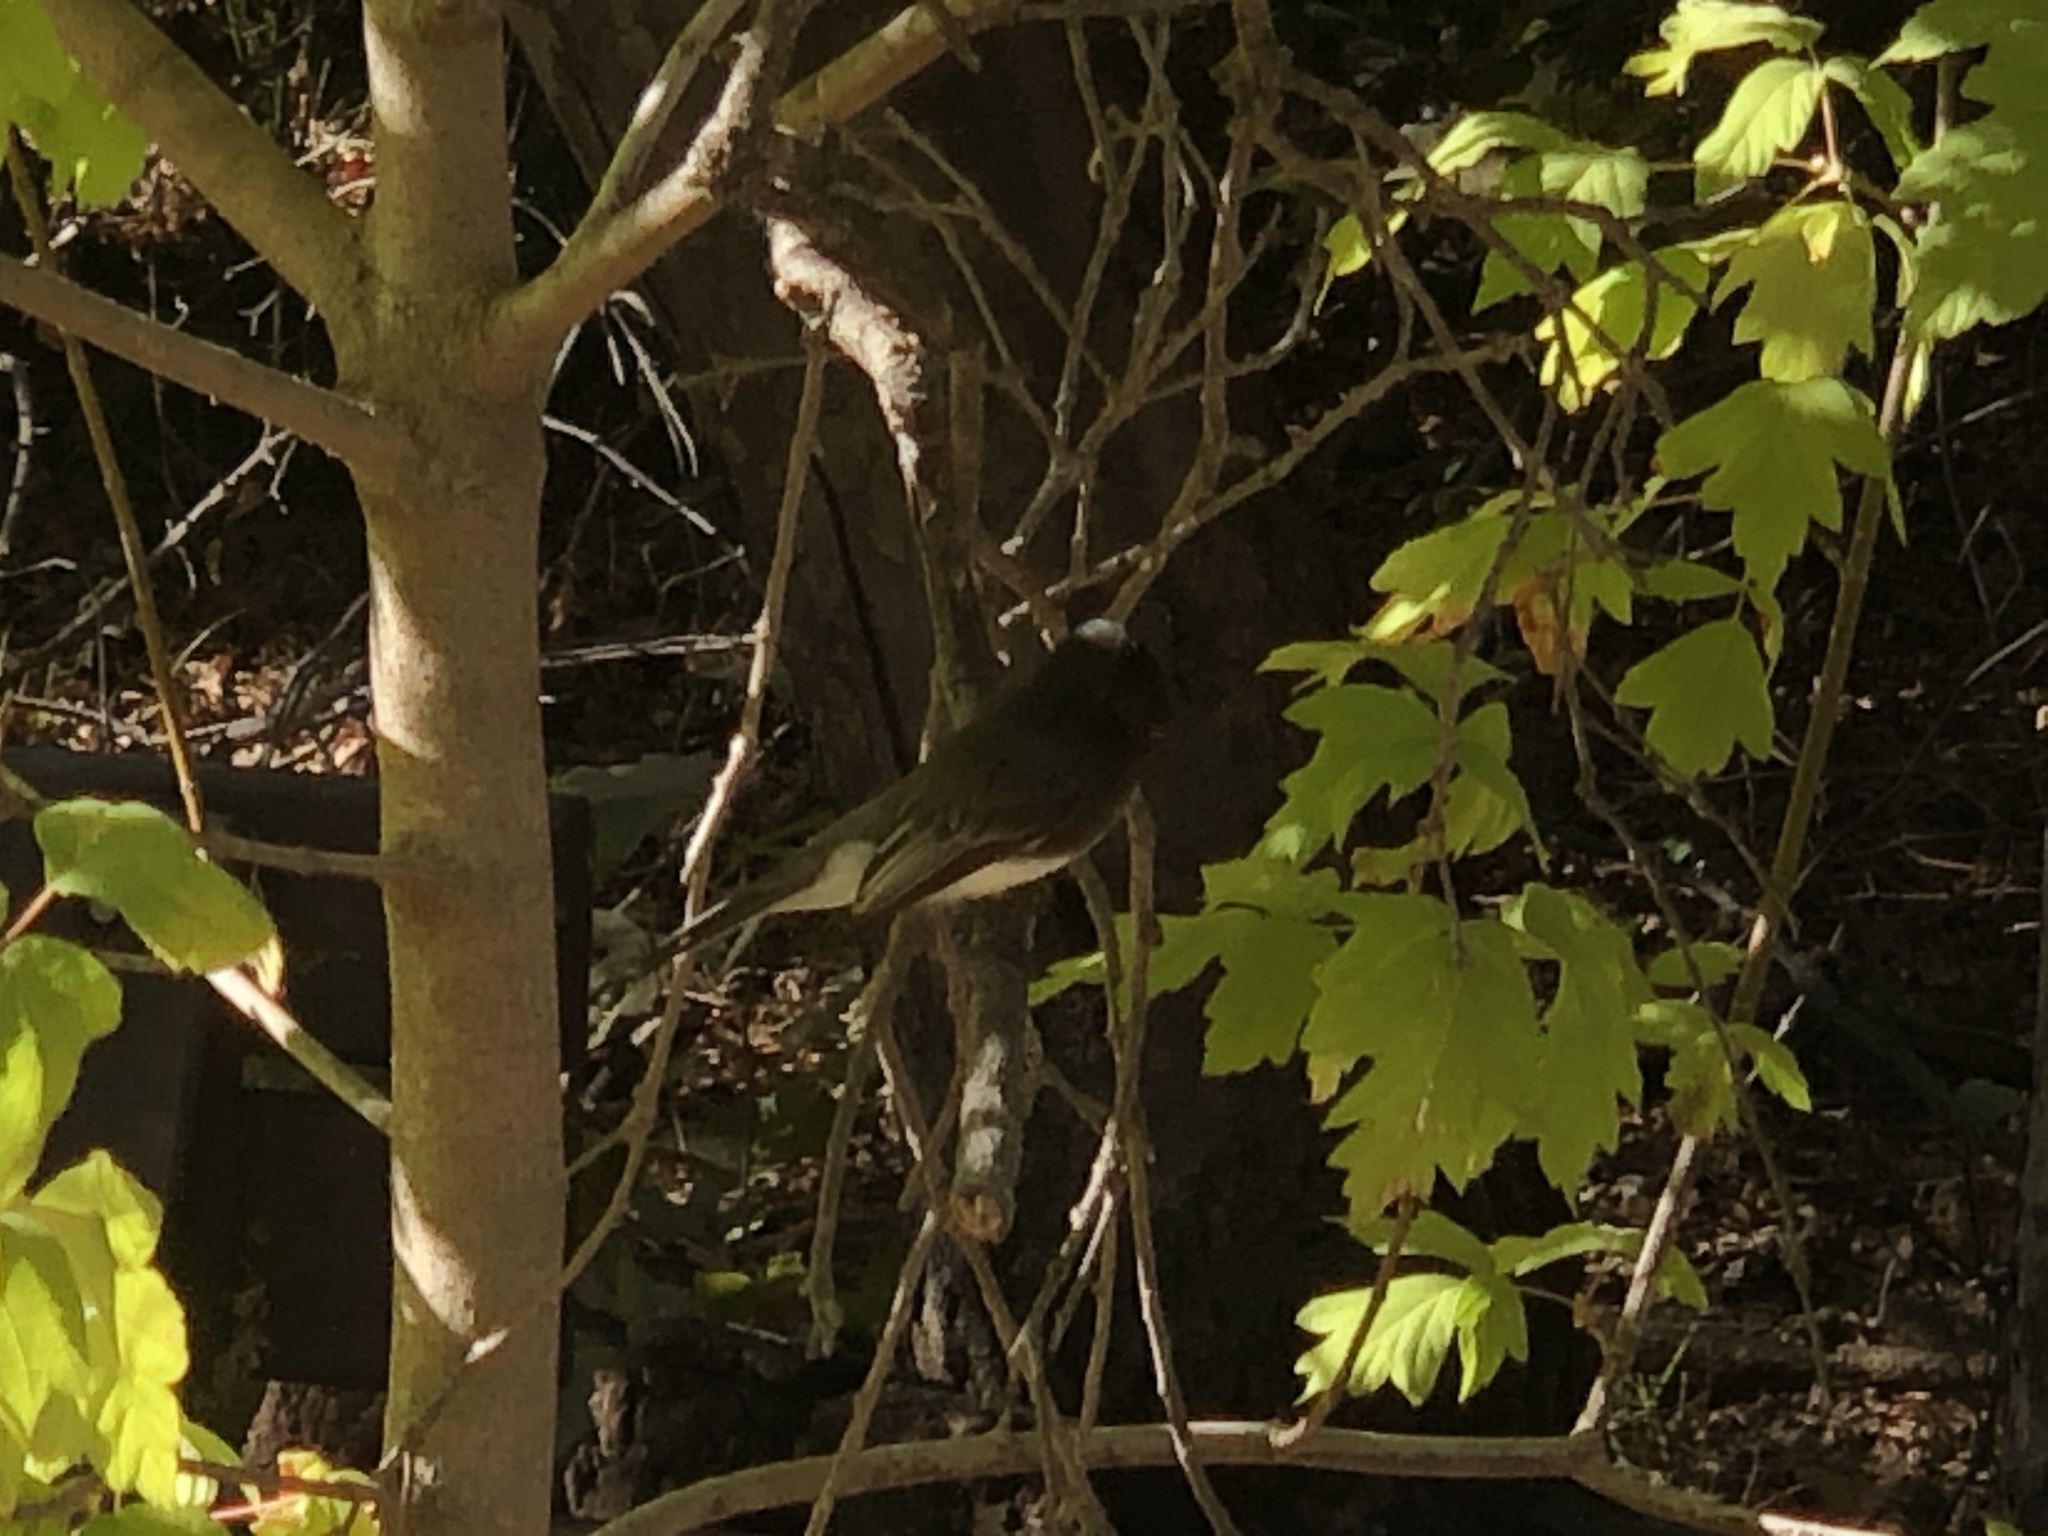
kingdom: Animalia
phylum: Chordata
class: Aves
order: Passeriformes
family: Tyrannidae
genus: Sayornis
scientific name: Sayornis nigricans
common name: Black phoebe
